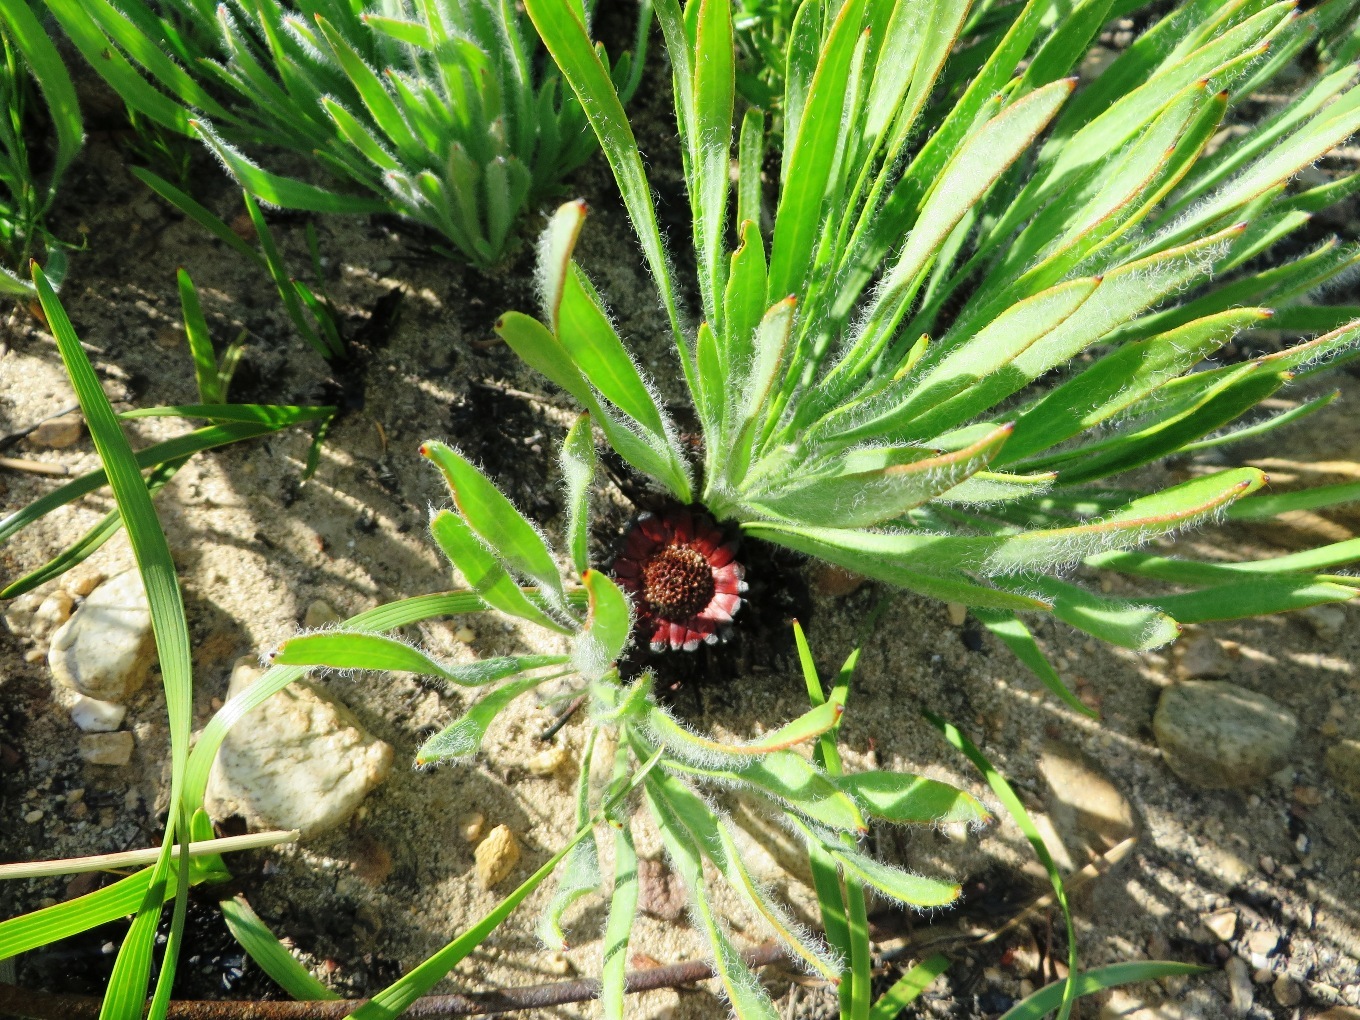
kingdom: Plantae
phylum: Tracheophyta
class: Magnoliopsida
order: Proteales
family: Proteaceae
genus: Protea
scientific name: Protea scabra
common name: Sandpaper-leaf sugarbush
